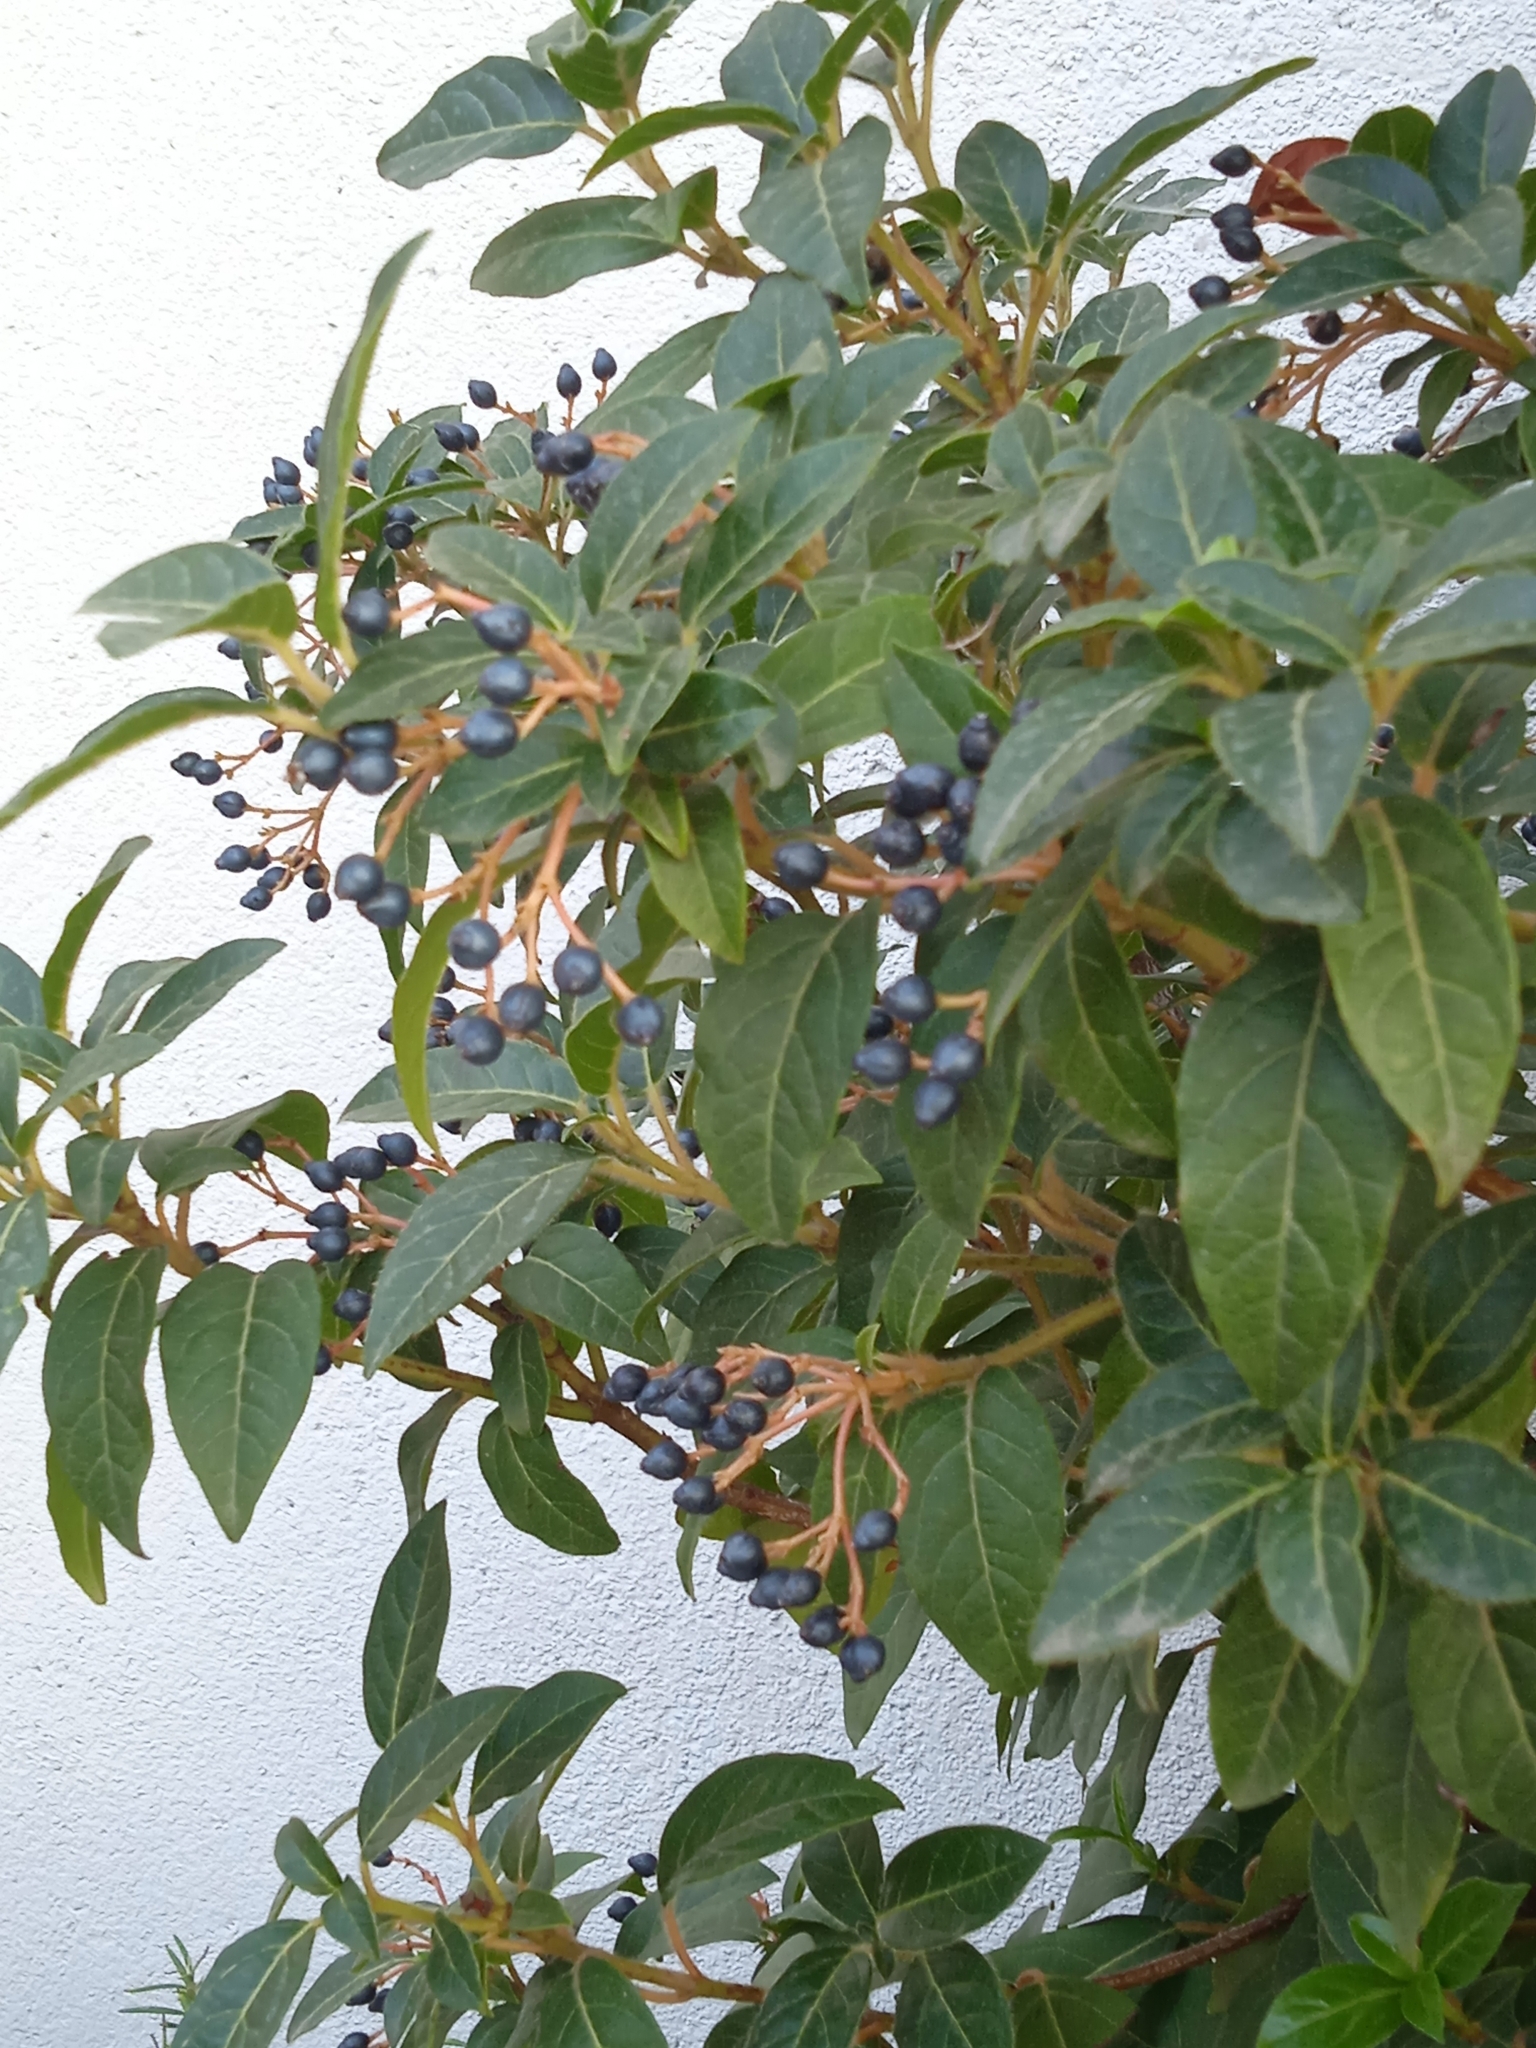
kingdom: Plantae
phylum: Tracheophyta
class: Magnoliopsida
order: Dipsacales
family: Viburnaceae
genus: Viburnum
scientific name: Viburnum tinus
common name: Laurustinus
